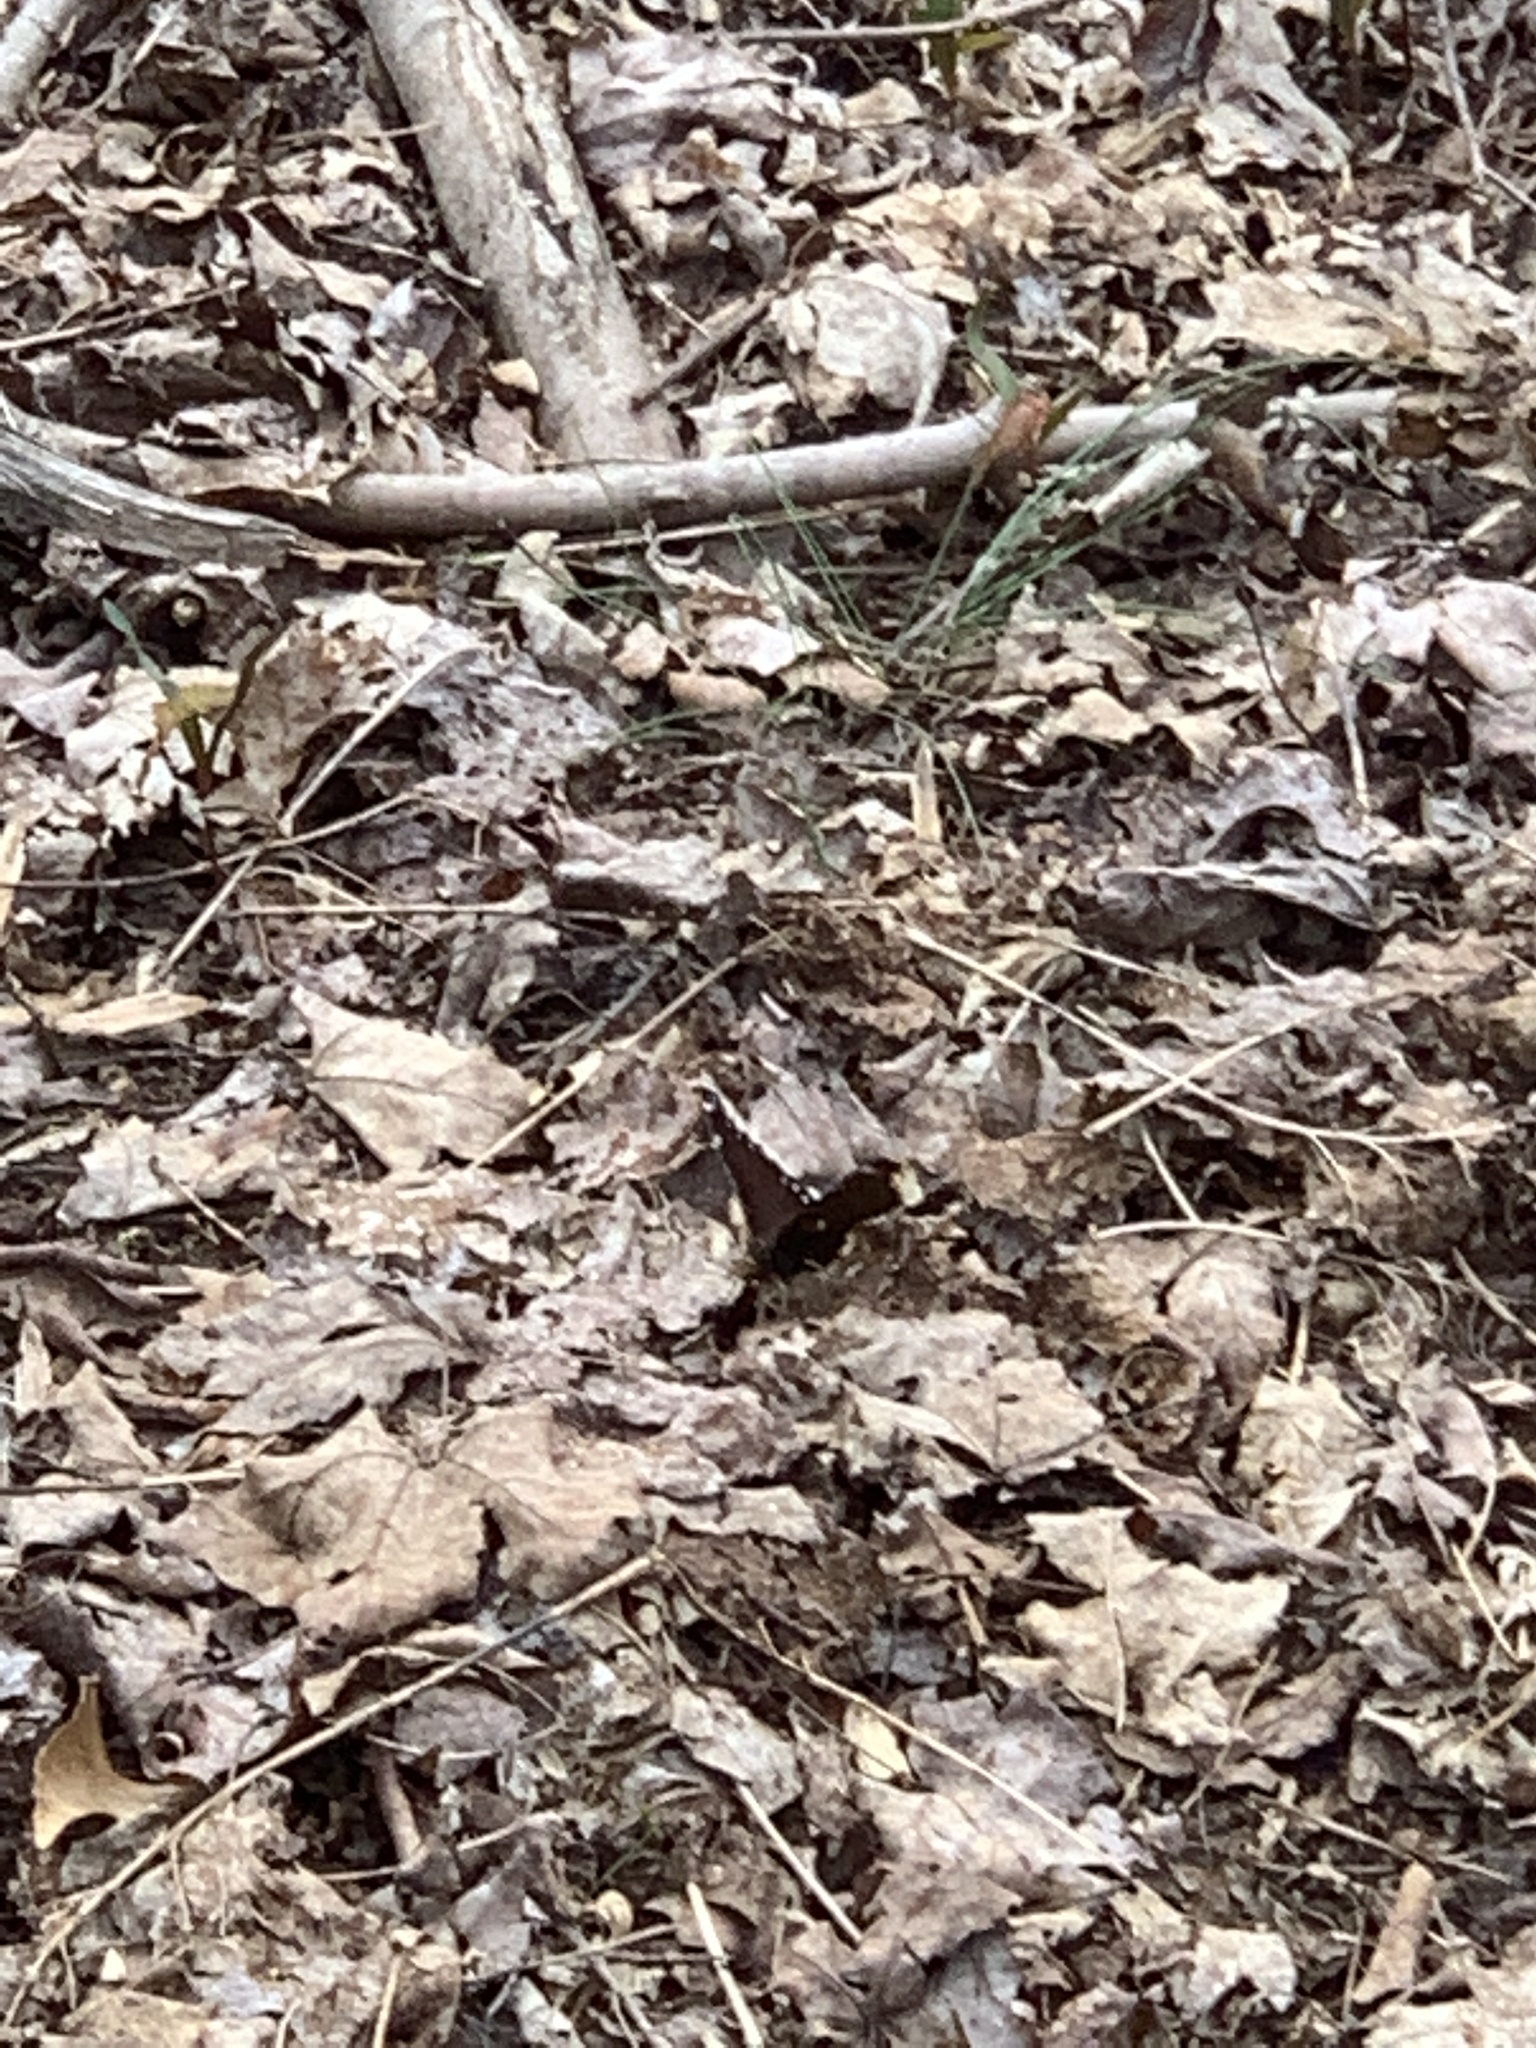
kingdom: Animalia
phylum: Arthropoda
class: Insecta
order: Lepidoptera
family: Nymphalidae
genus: Nymphalis
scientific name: Nymphalis antiopa
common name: Camberwell beauty
